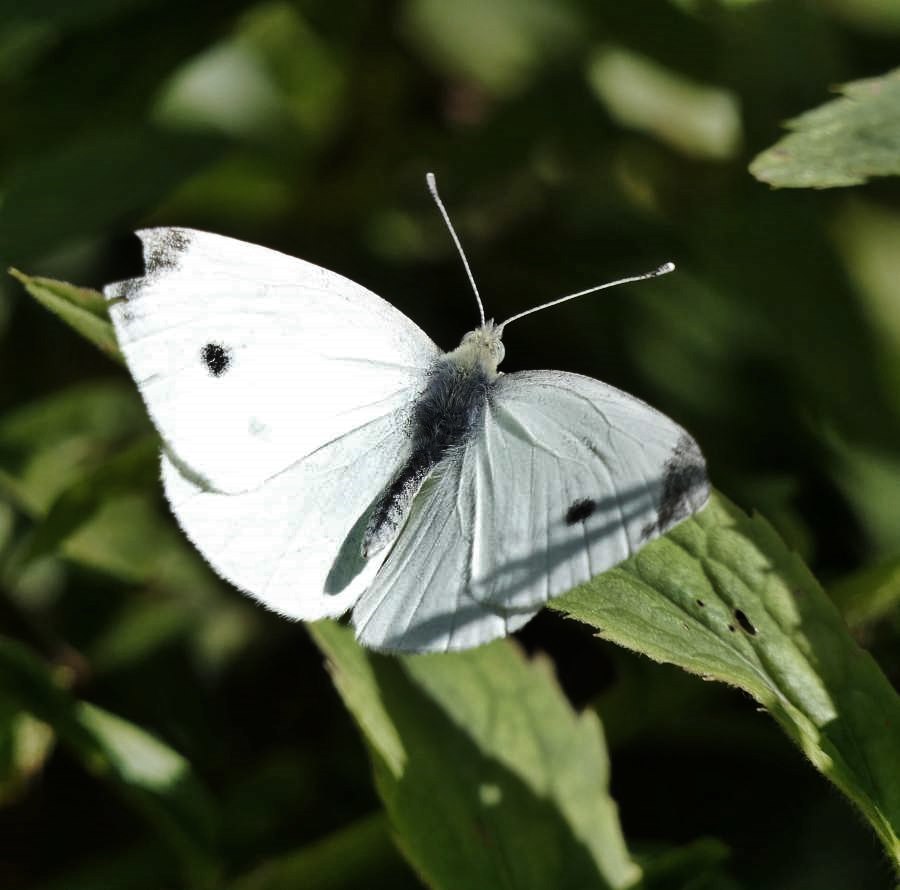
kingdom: Animalia
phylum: Arthropoda
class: Insecta
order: Lepidoptera
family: Pieridae
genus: Pieris
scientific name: Pieris rapae
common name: Small white
